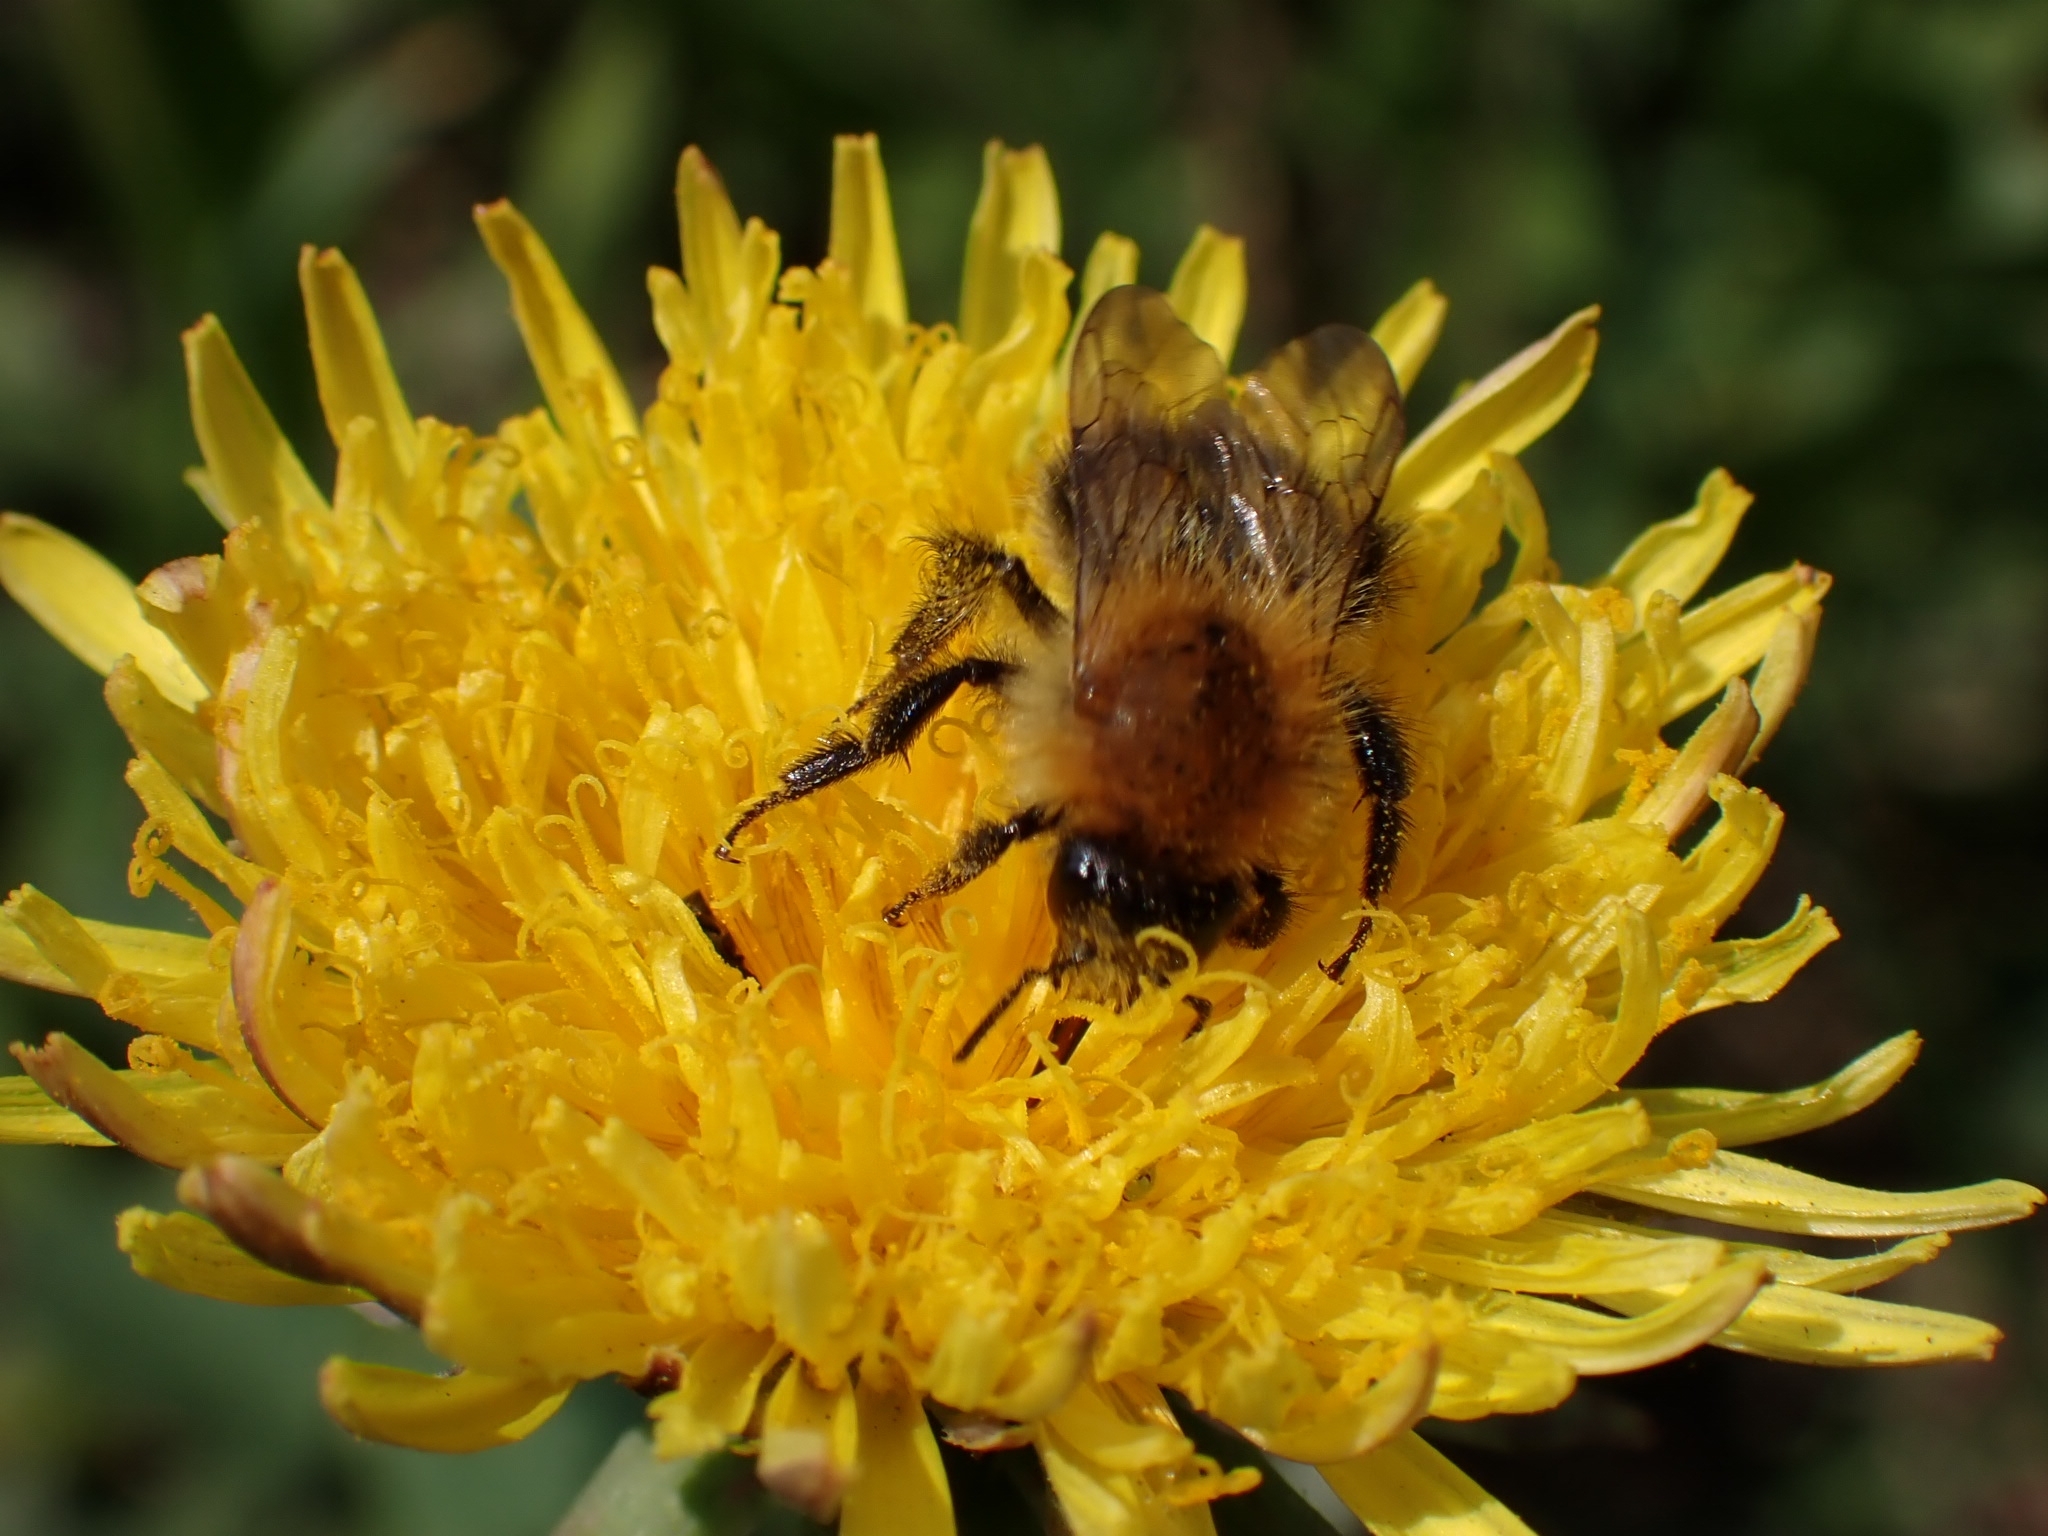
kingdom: Animalia
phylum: Arthropoda
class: Insecta
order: Hymenoptera
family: Apidae
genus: Bombus
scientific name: Bombus pascuorum
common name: Common carder bee
